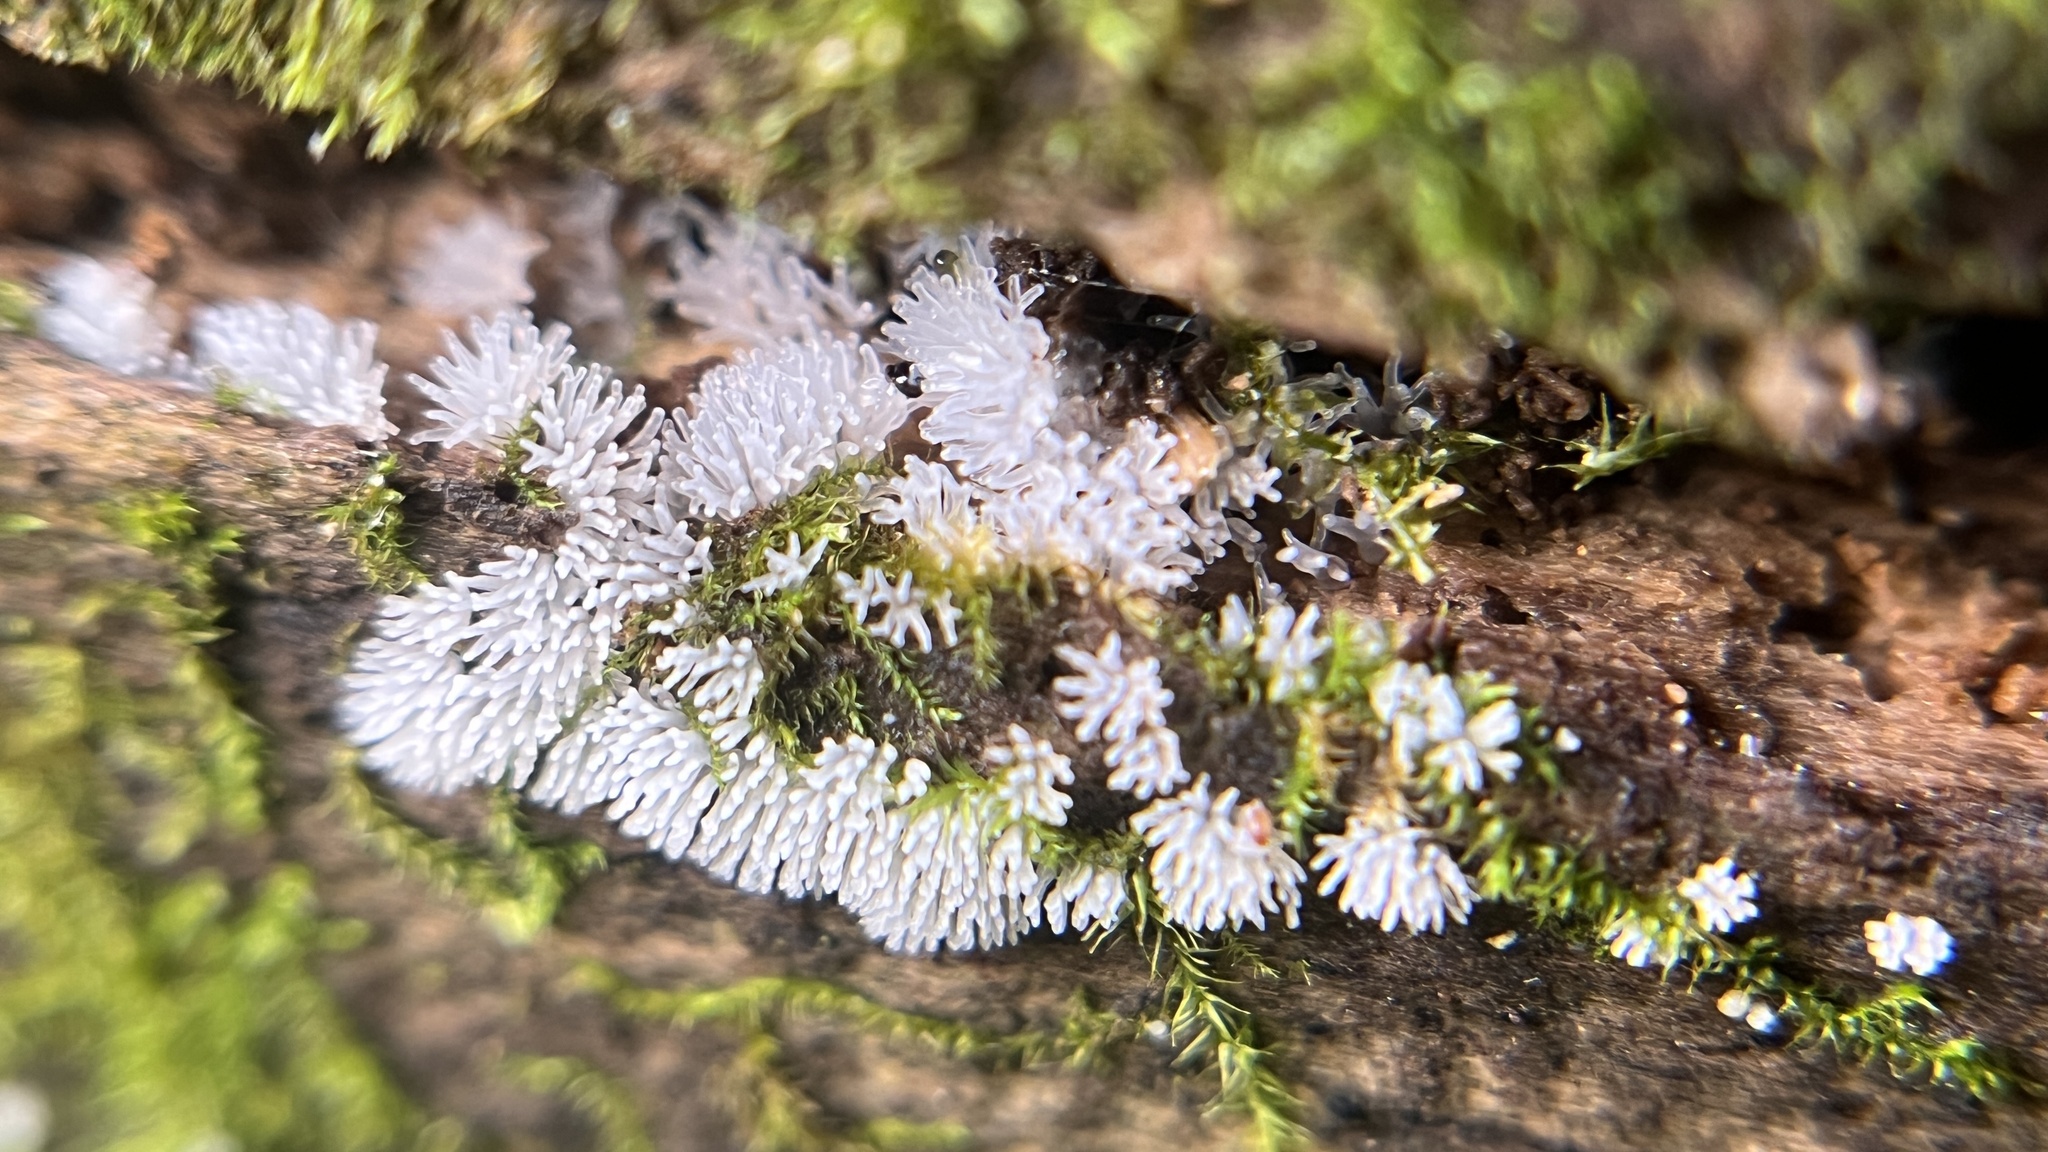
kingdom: Protozoa
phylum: Mycetozoa
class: Protosteliomycetes
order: Ceratiomyxales
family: Ceratiomyxaceae
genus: Ceratiomyxa
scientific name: Ceratiomyxa fruticulosa
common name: Honeycomb coral slime mold
